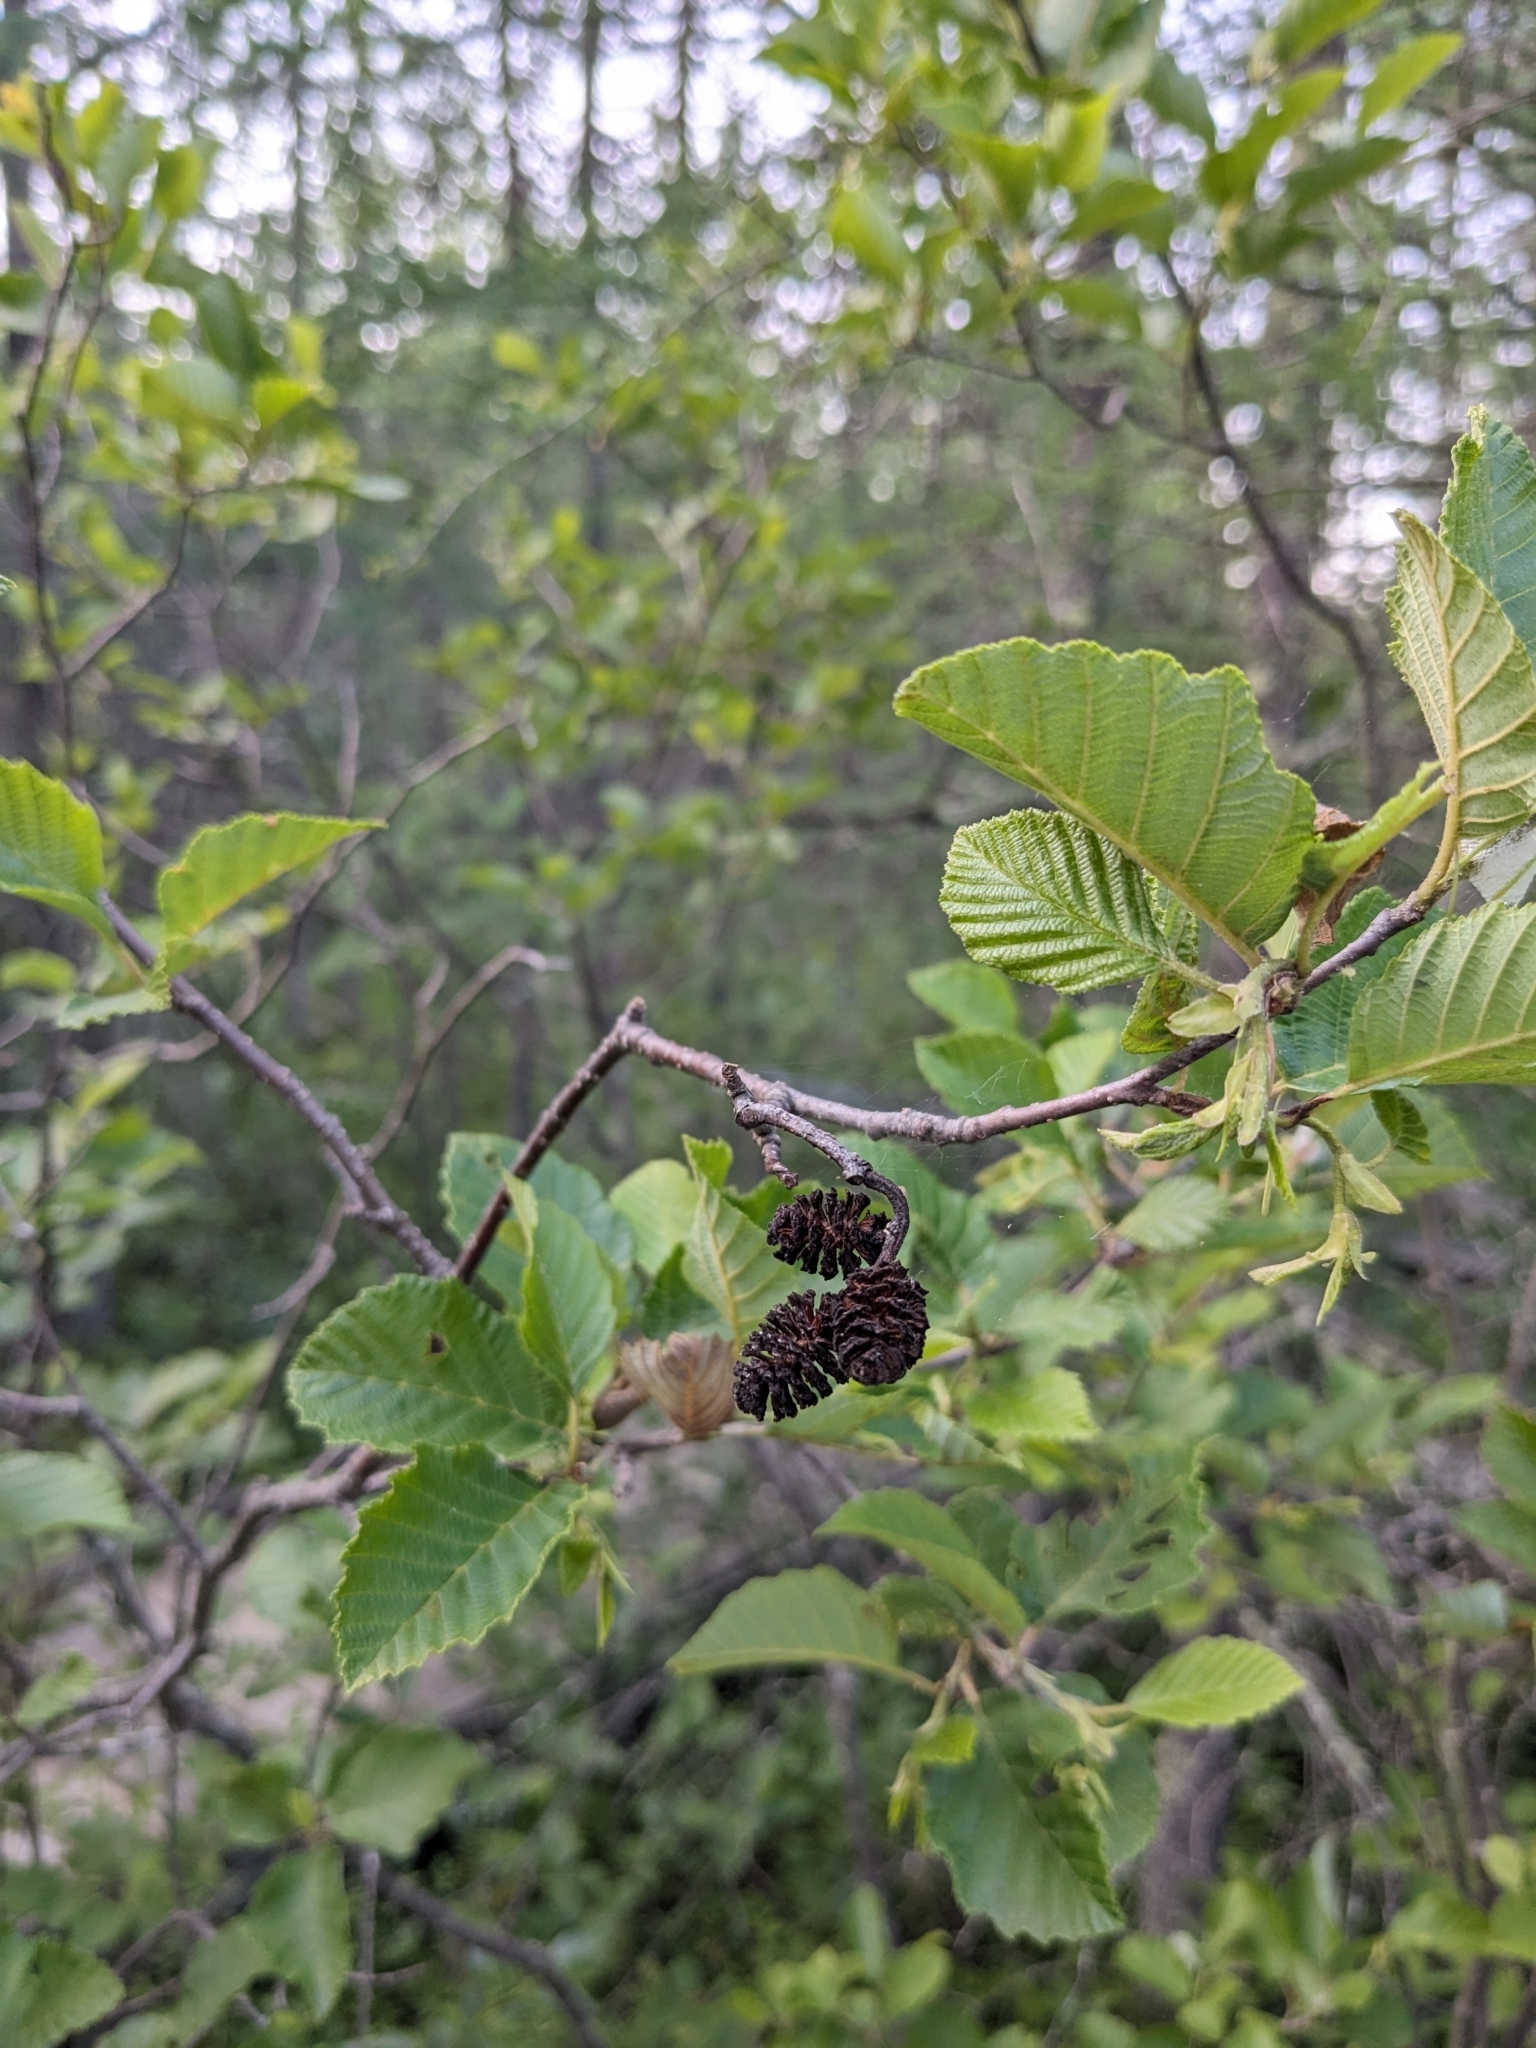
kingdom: Plantae
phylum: Tracheophyta
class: Magnoliopsida
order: Fagales
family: Betulaceae
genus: Alnus
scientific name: Alnus incana
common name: Grey alder
